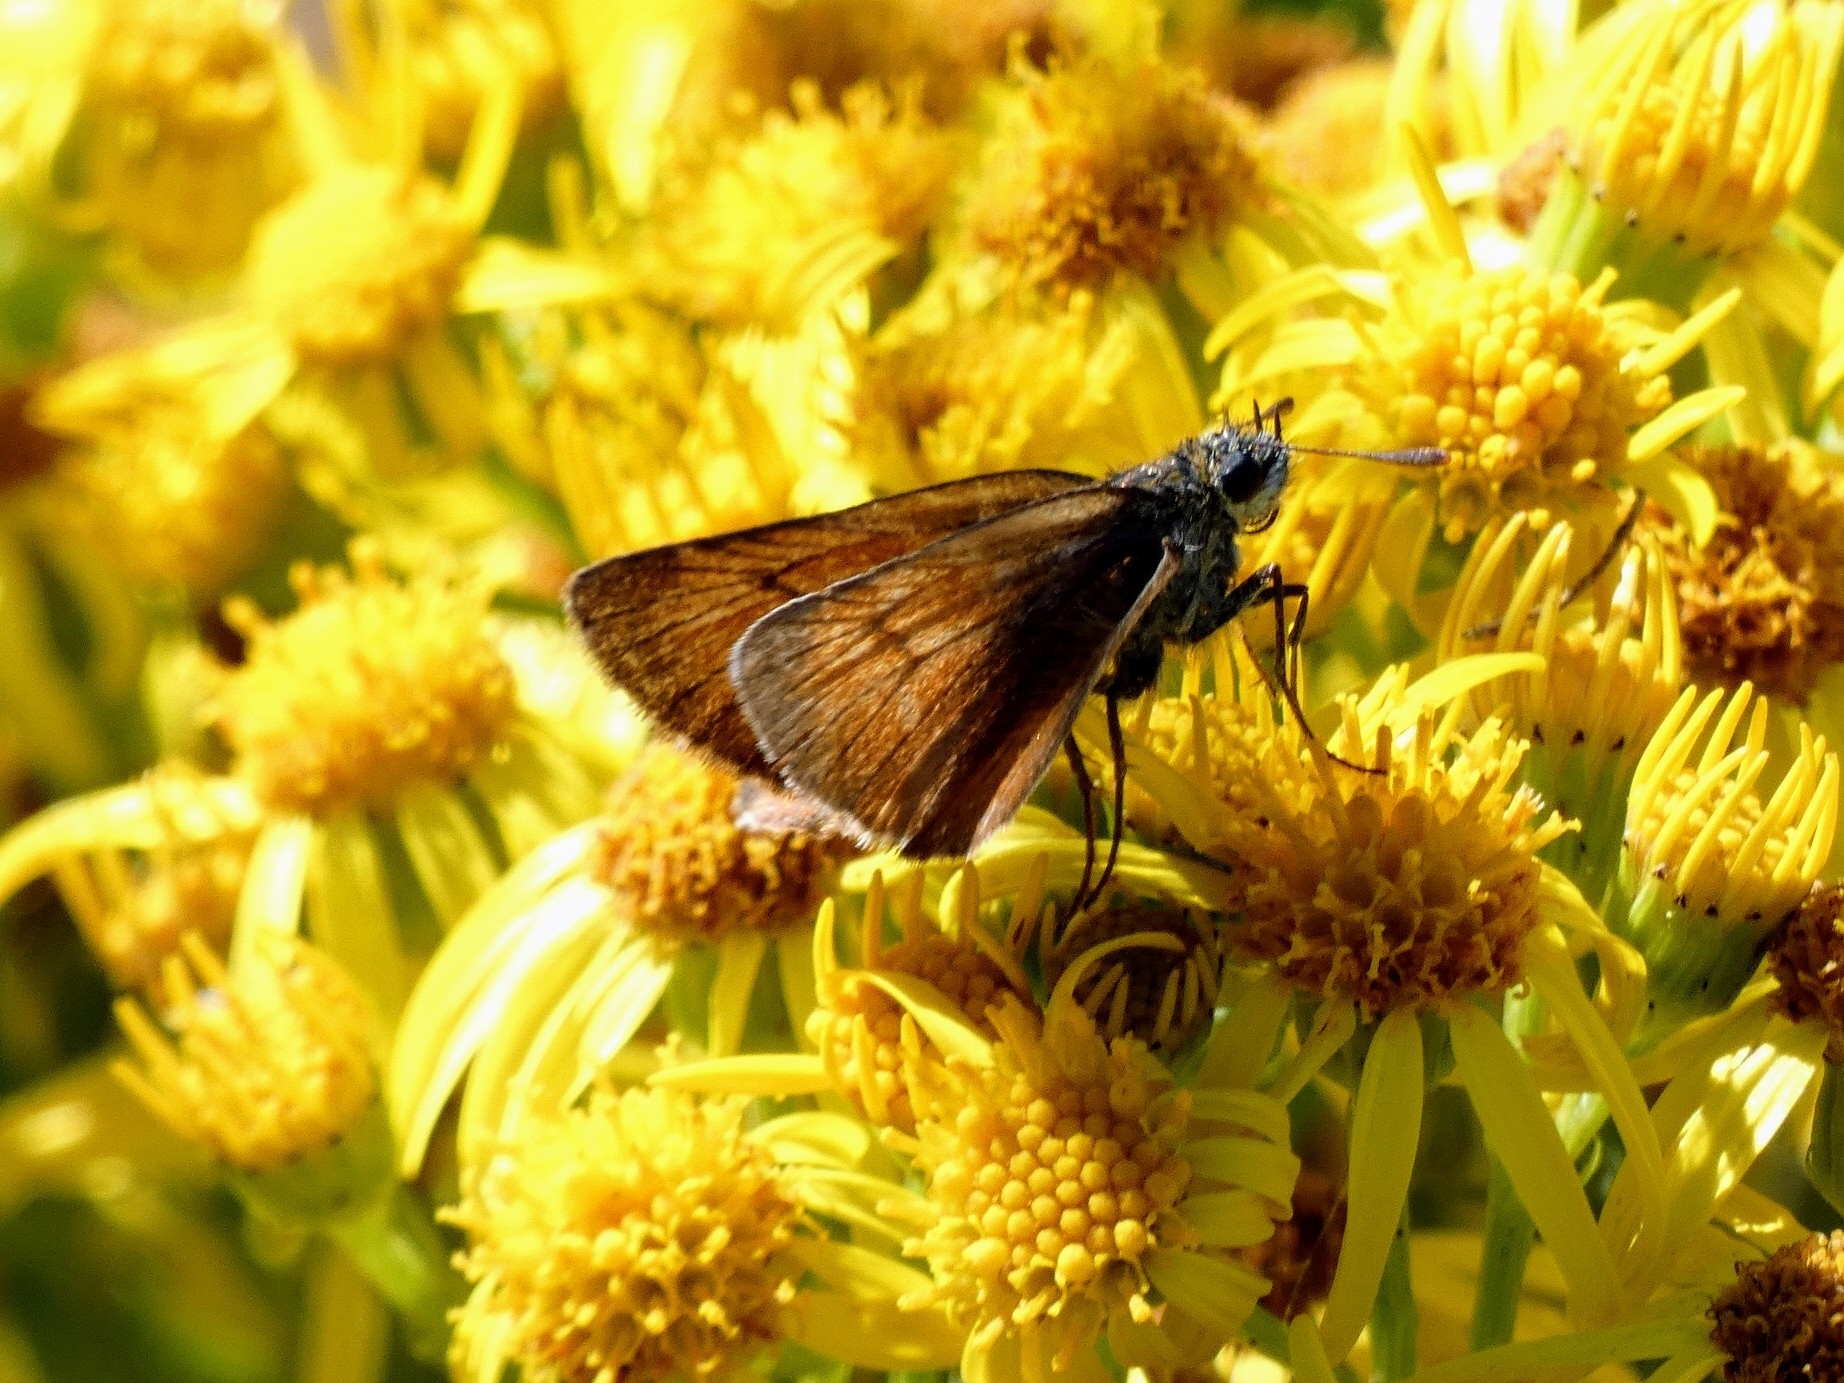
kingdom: Animalia
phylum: Arthropoda
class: Insecta
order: Lepidoptera
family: Hesperiidae
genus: Thymelicus
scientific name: Thymelicus sylvestris
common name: Small skipper
